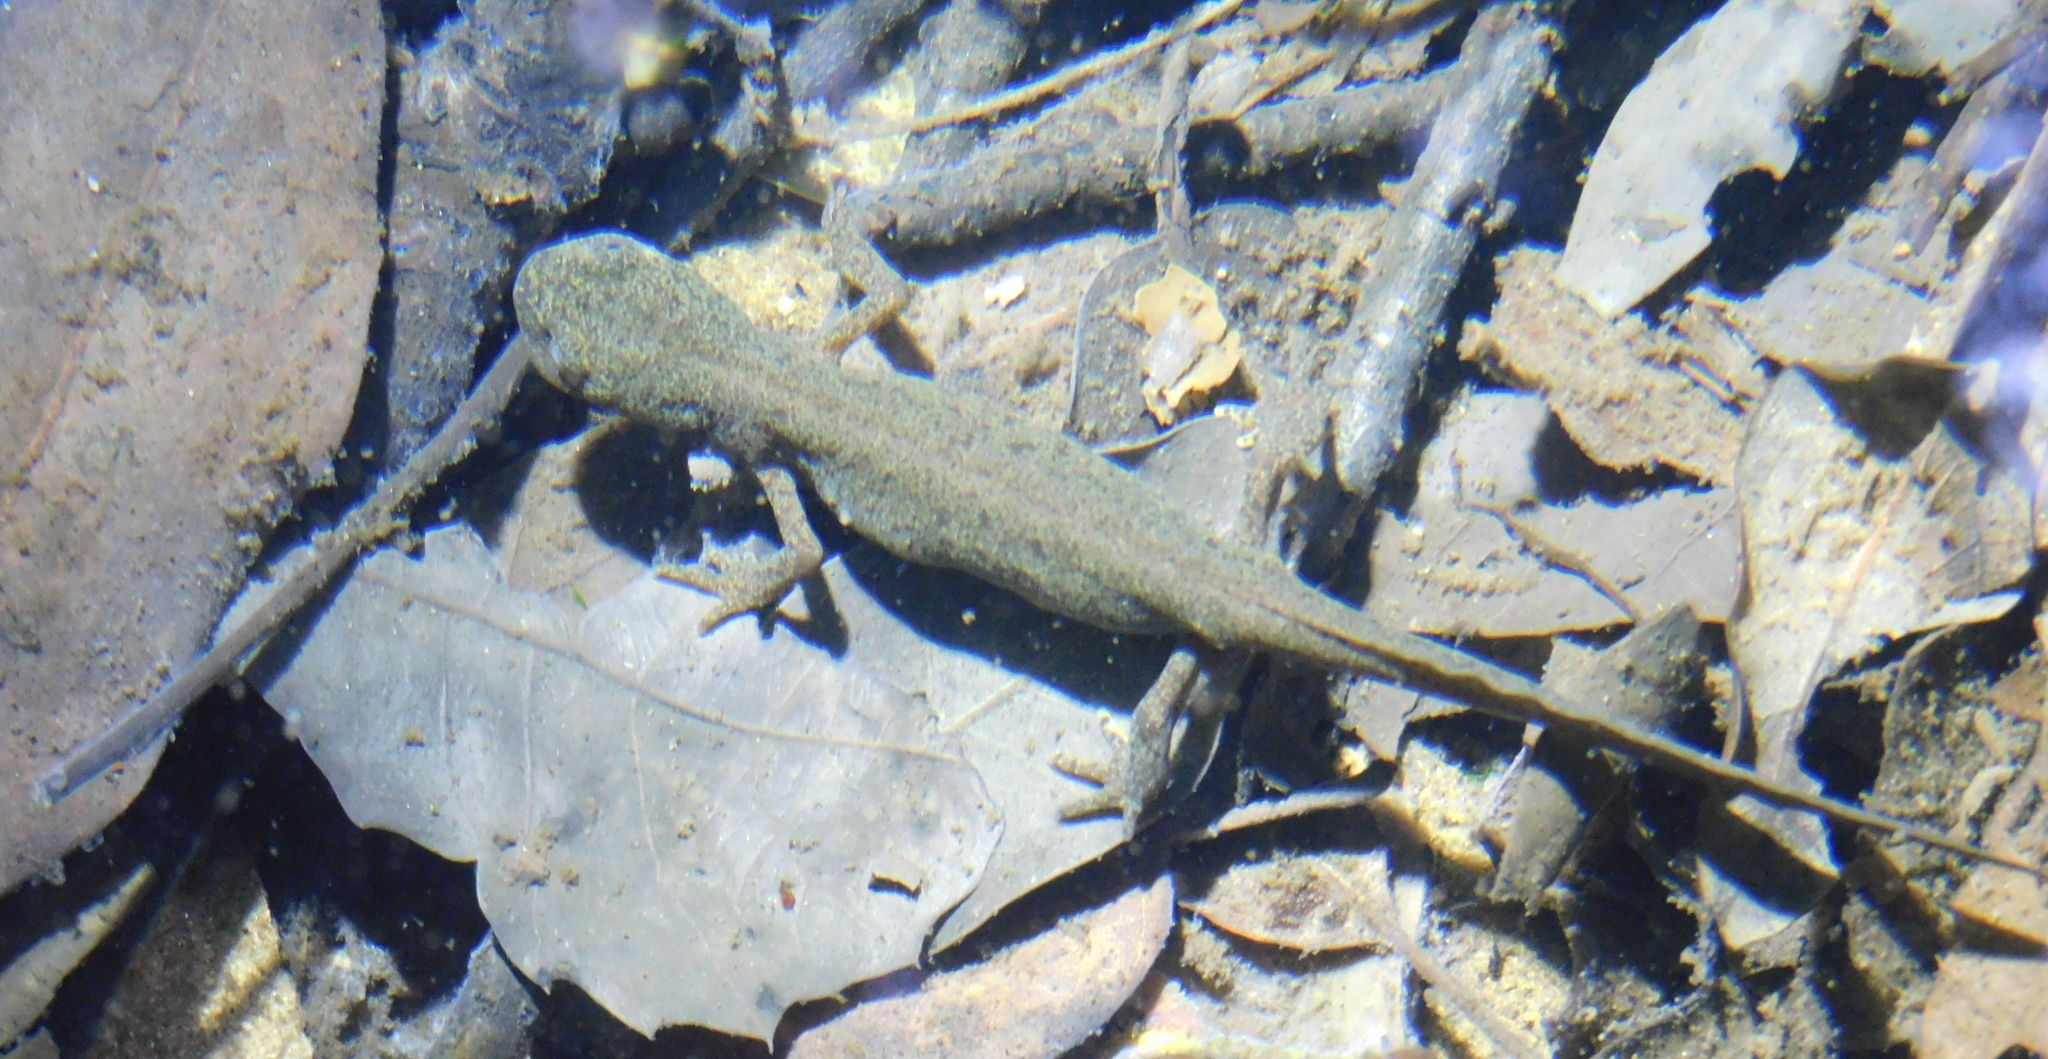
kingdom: Animalia
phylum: Chordata
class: Amphibia
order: Caudata
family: Salamandridae
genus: Ichthyosaura
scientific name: Ichthyosaura alpestris
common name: Alpine newt
